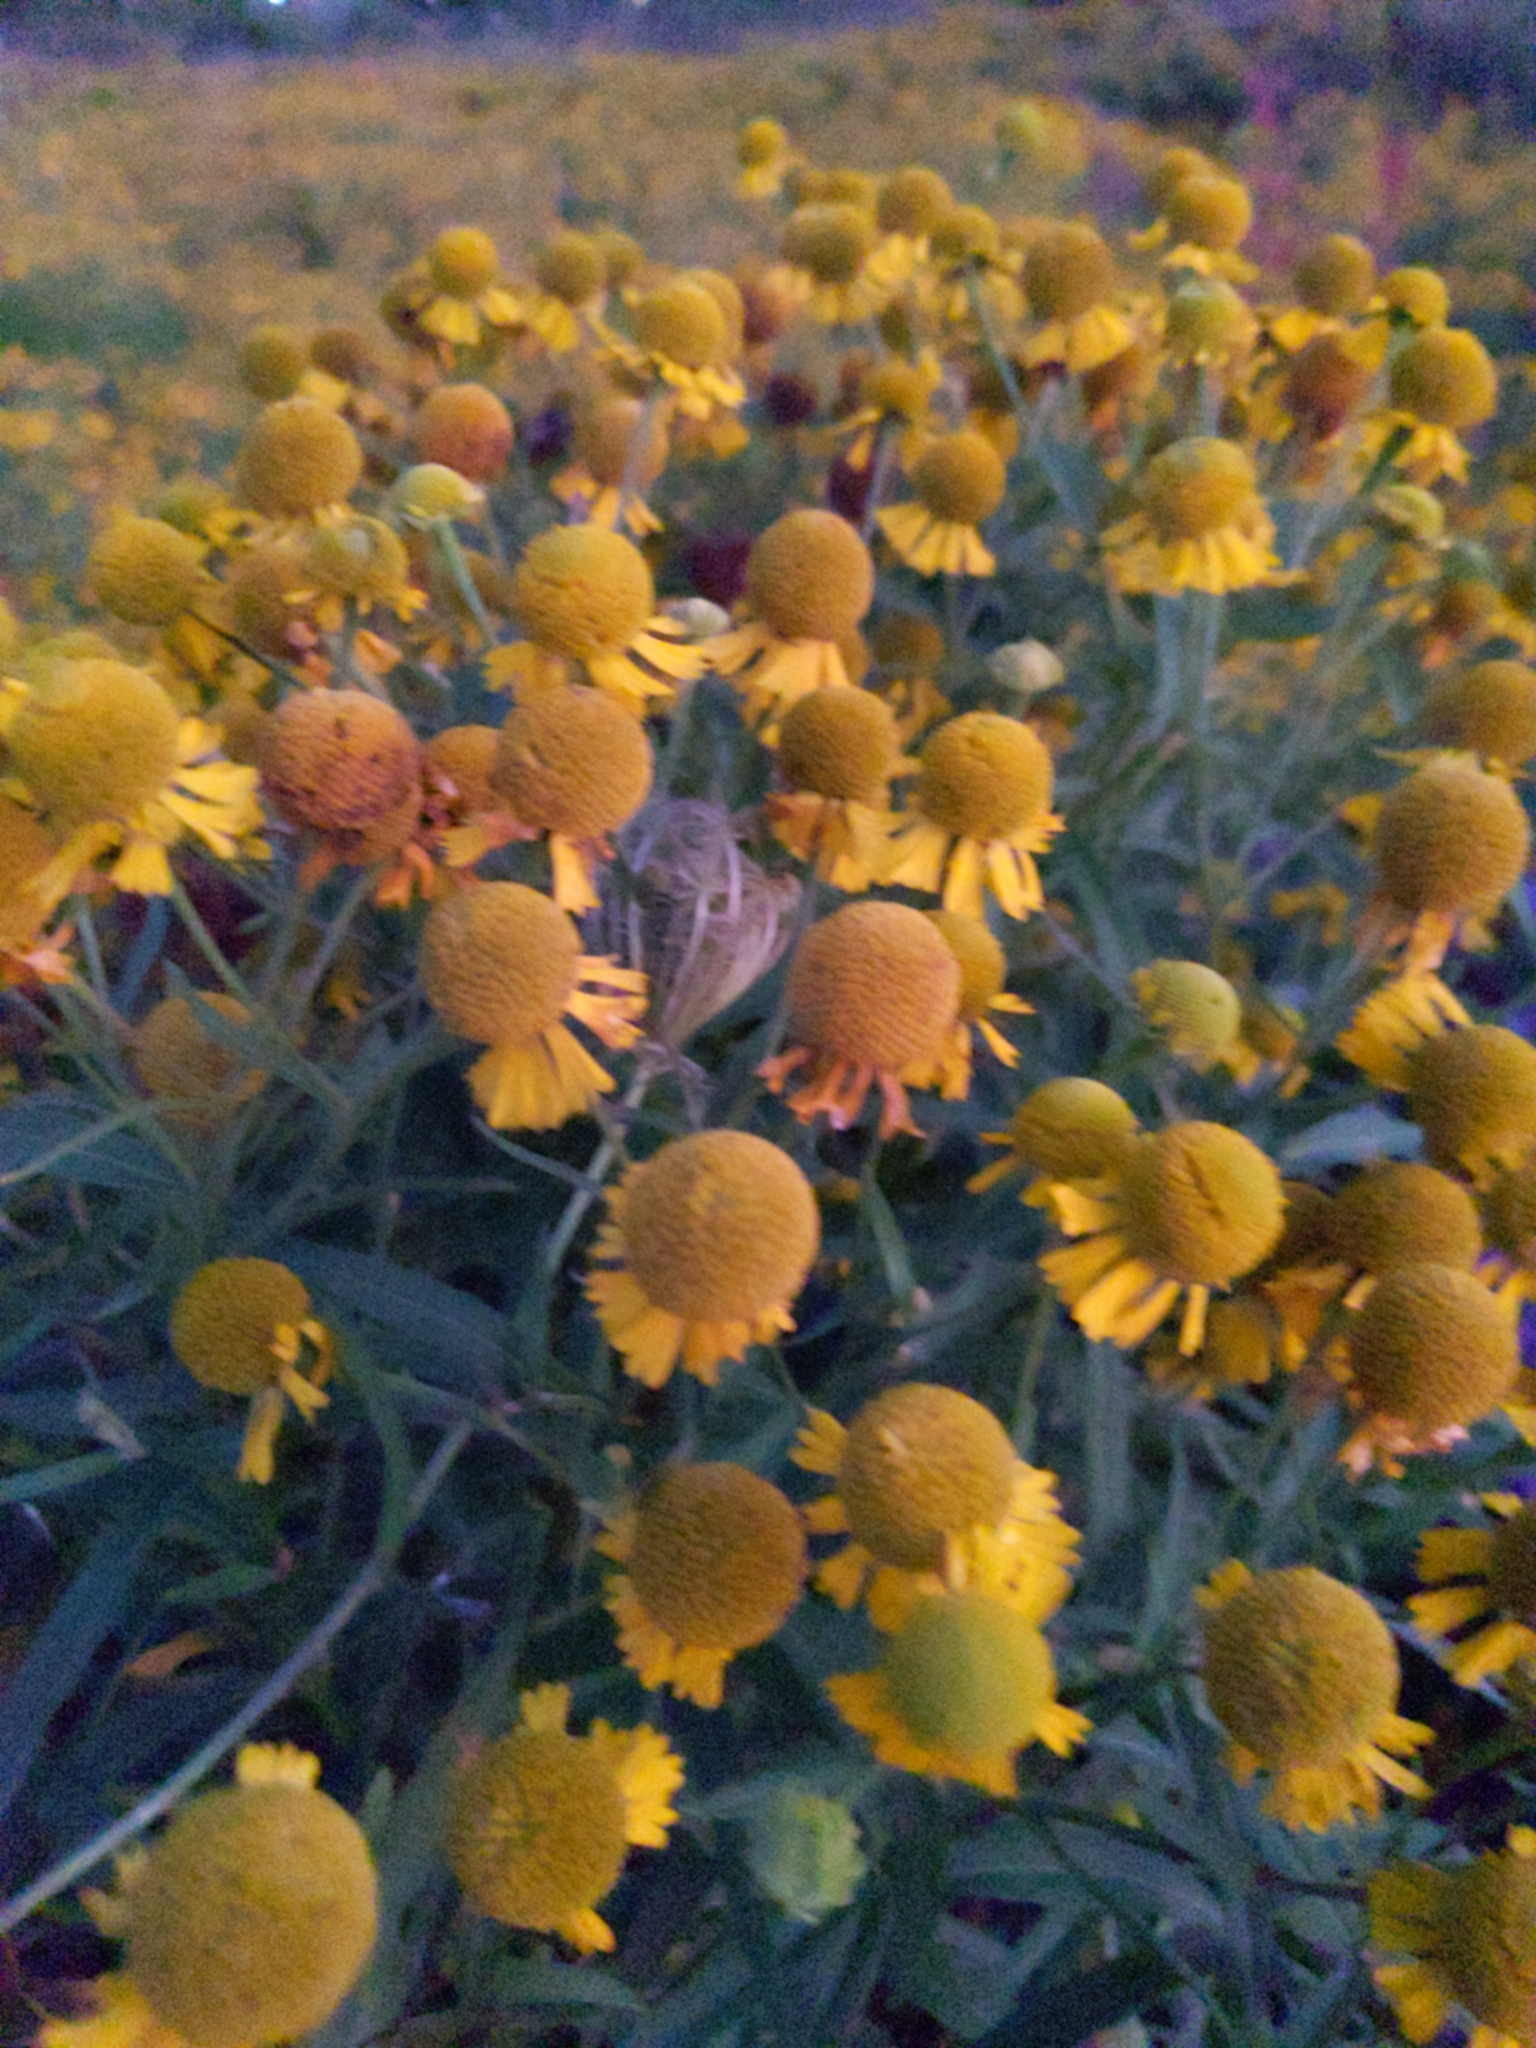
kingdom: Plantae
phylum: Tracheophyta
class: Magnoliopsida
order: Asterales
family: Asteraceae
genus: Helenium
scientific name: Helenium autumnale
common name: Sneezeweed
